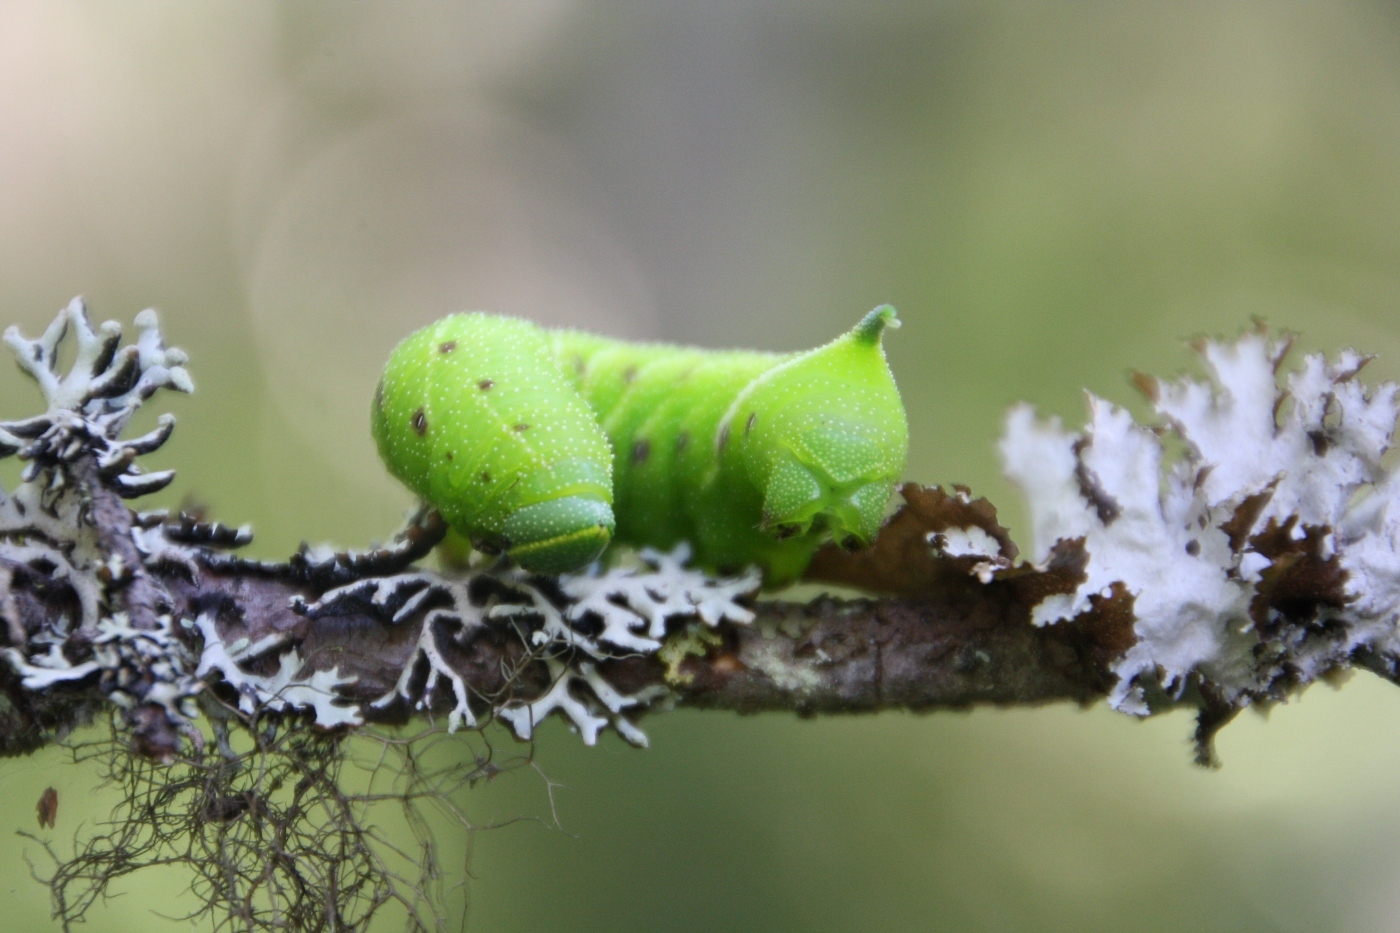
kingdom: Animalia
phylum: Arthropoda
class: Insecta
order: Lepidoptera
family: Sphingidae
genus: Smerinthus
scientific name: Smerinthus ocellata
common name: Eyed hawk-moth
